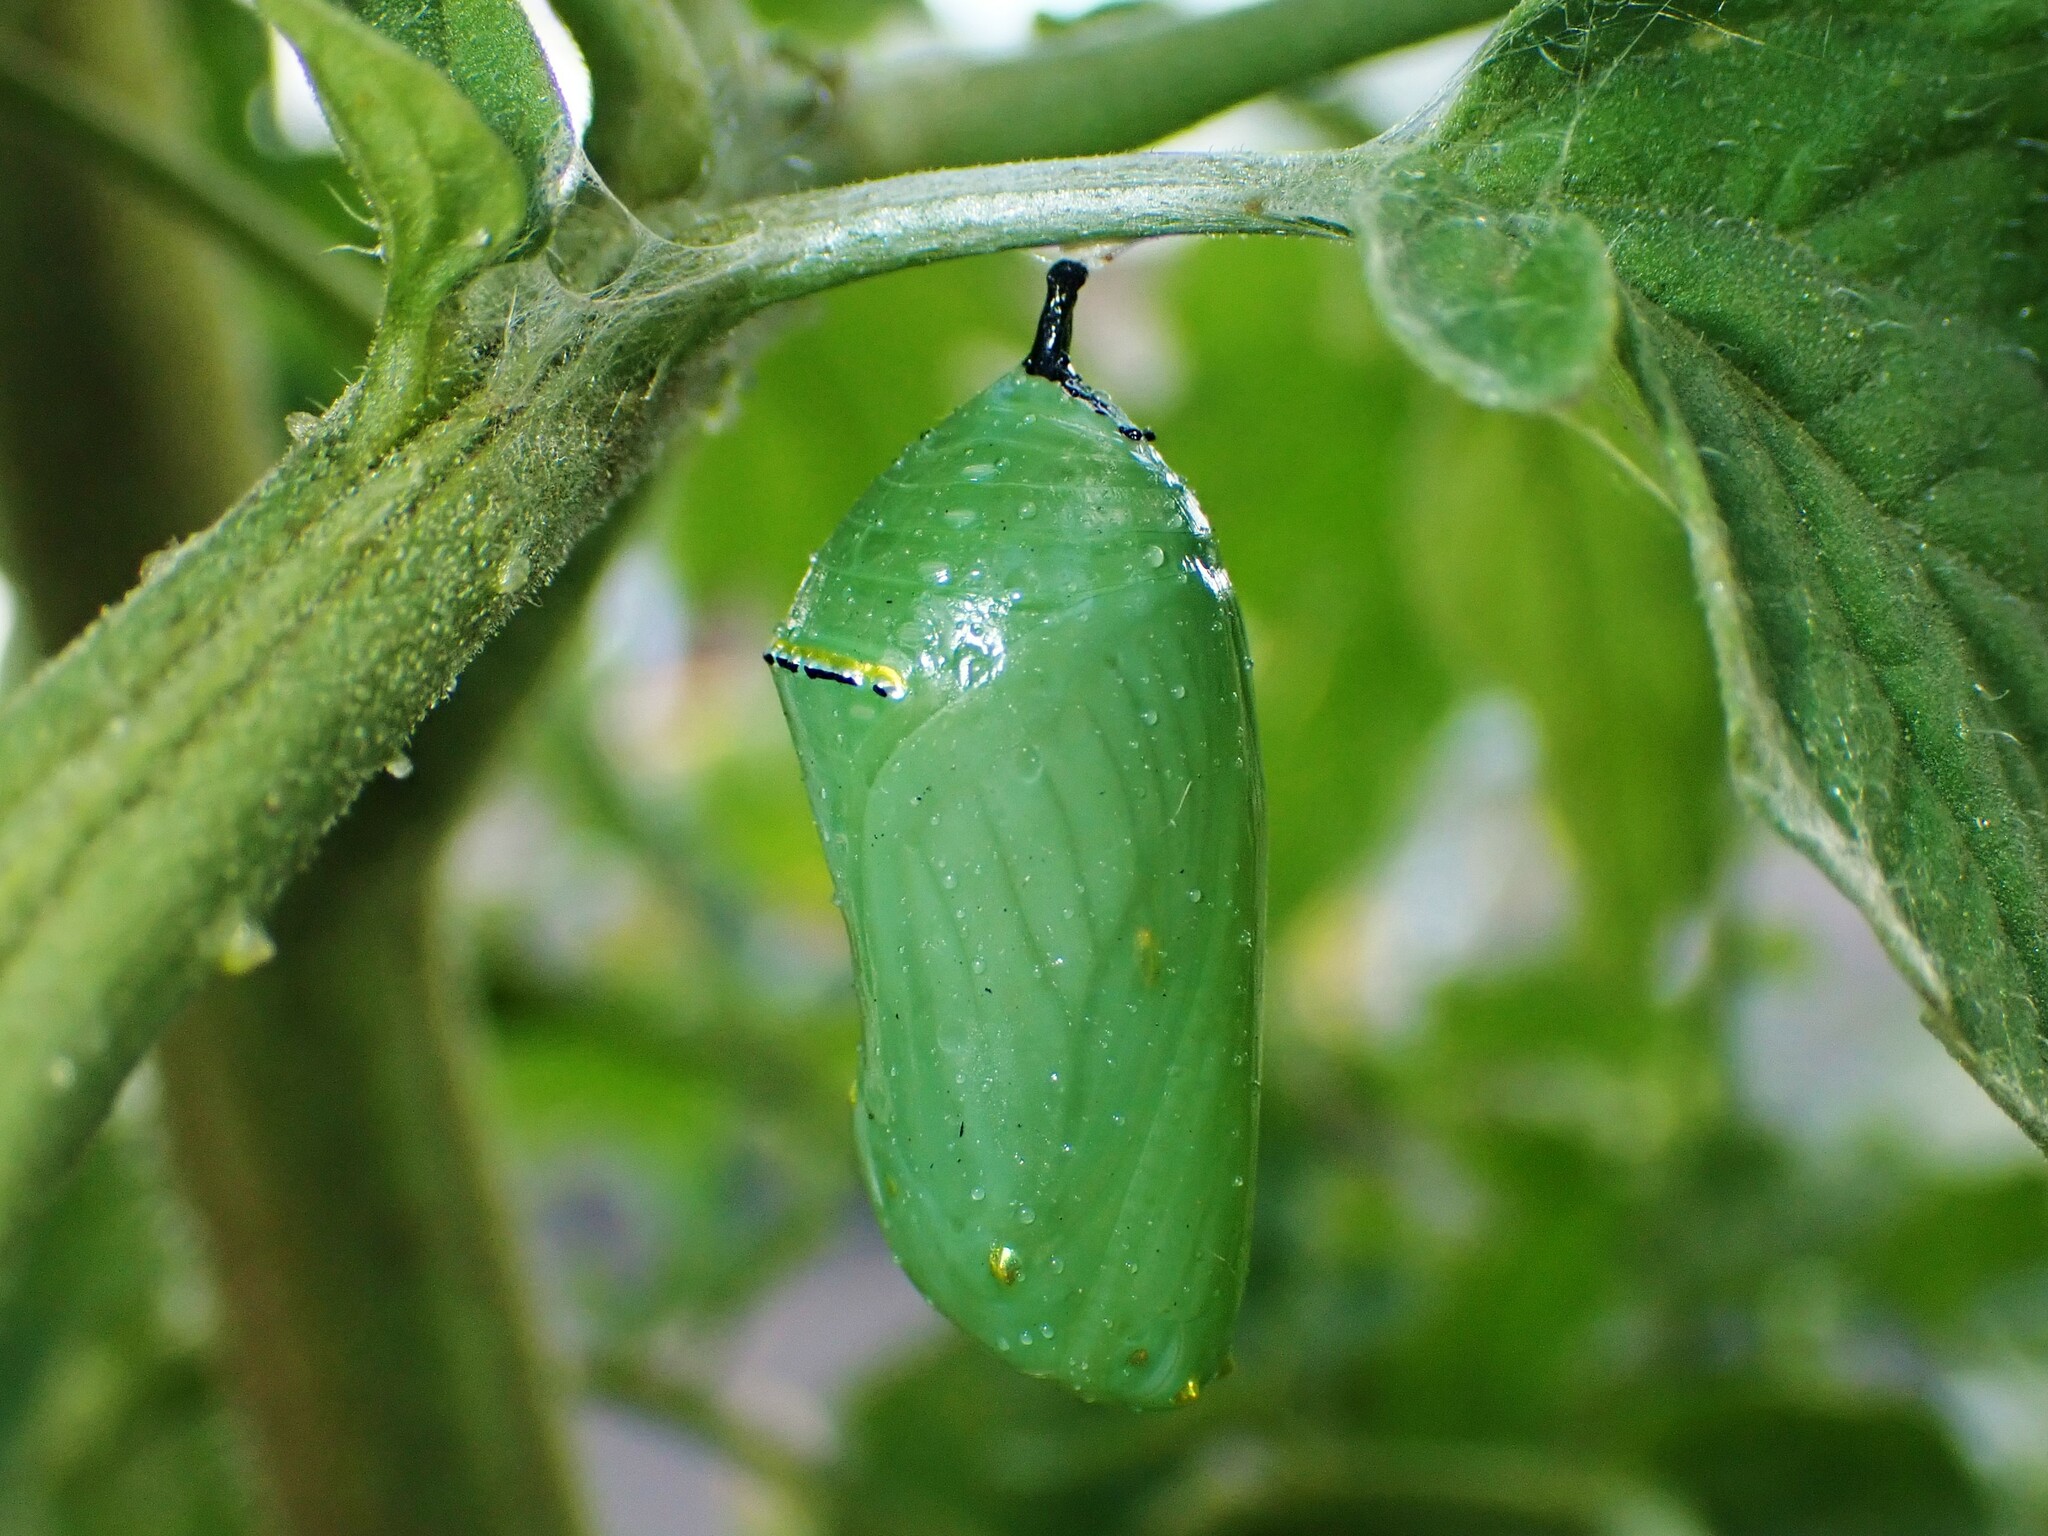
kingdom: Animalia
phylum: Arthropoda
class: Insecta
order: Lepidoptera
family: Nymphalidae
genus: Danaus
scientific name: Danaus plexippus
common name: Monarch
